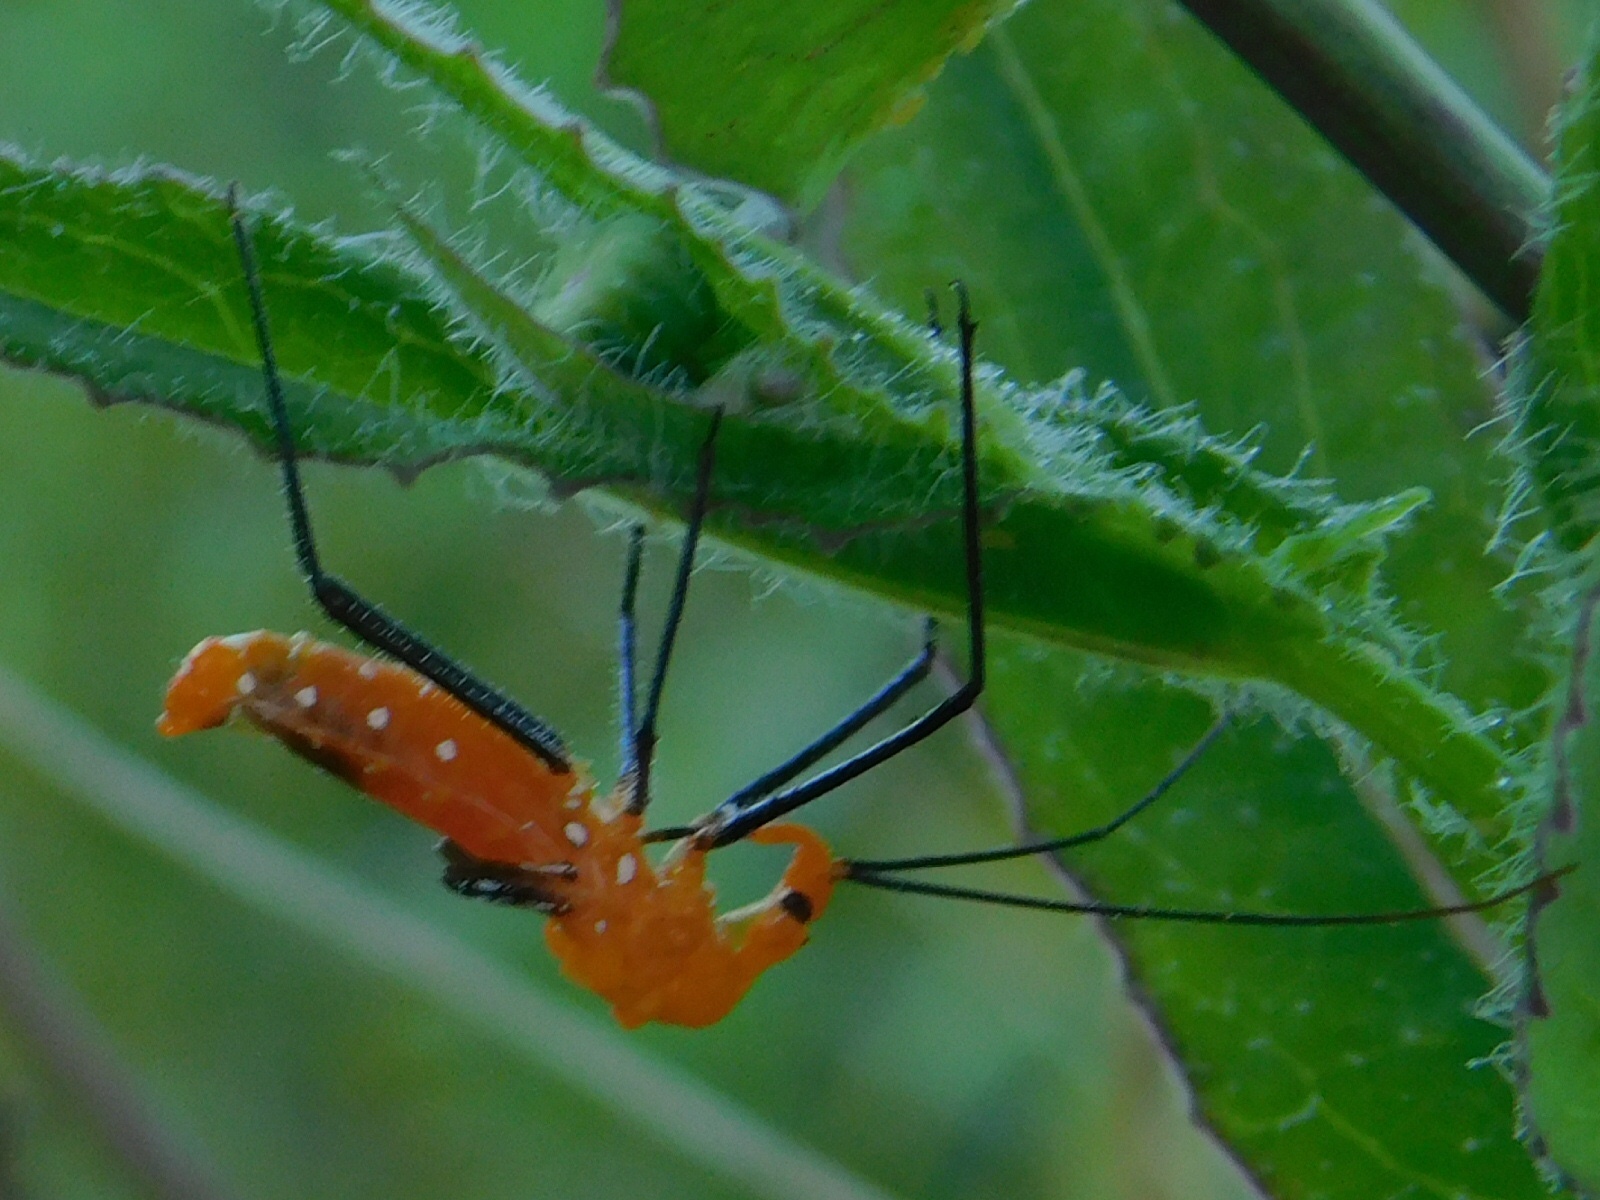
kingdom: Animalia
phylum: Arthropoda
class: Insecta
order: Hemiptera
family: Reduviidae
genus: Zelus
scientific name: Zelus longipes
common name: Milkweed assassin bug
